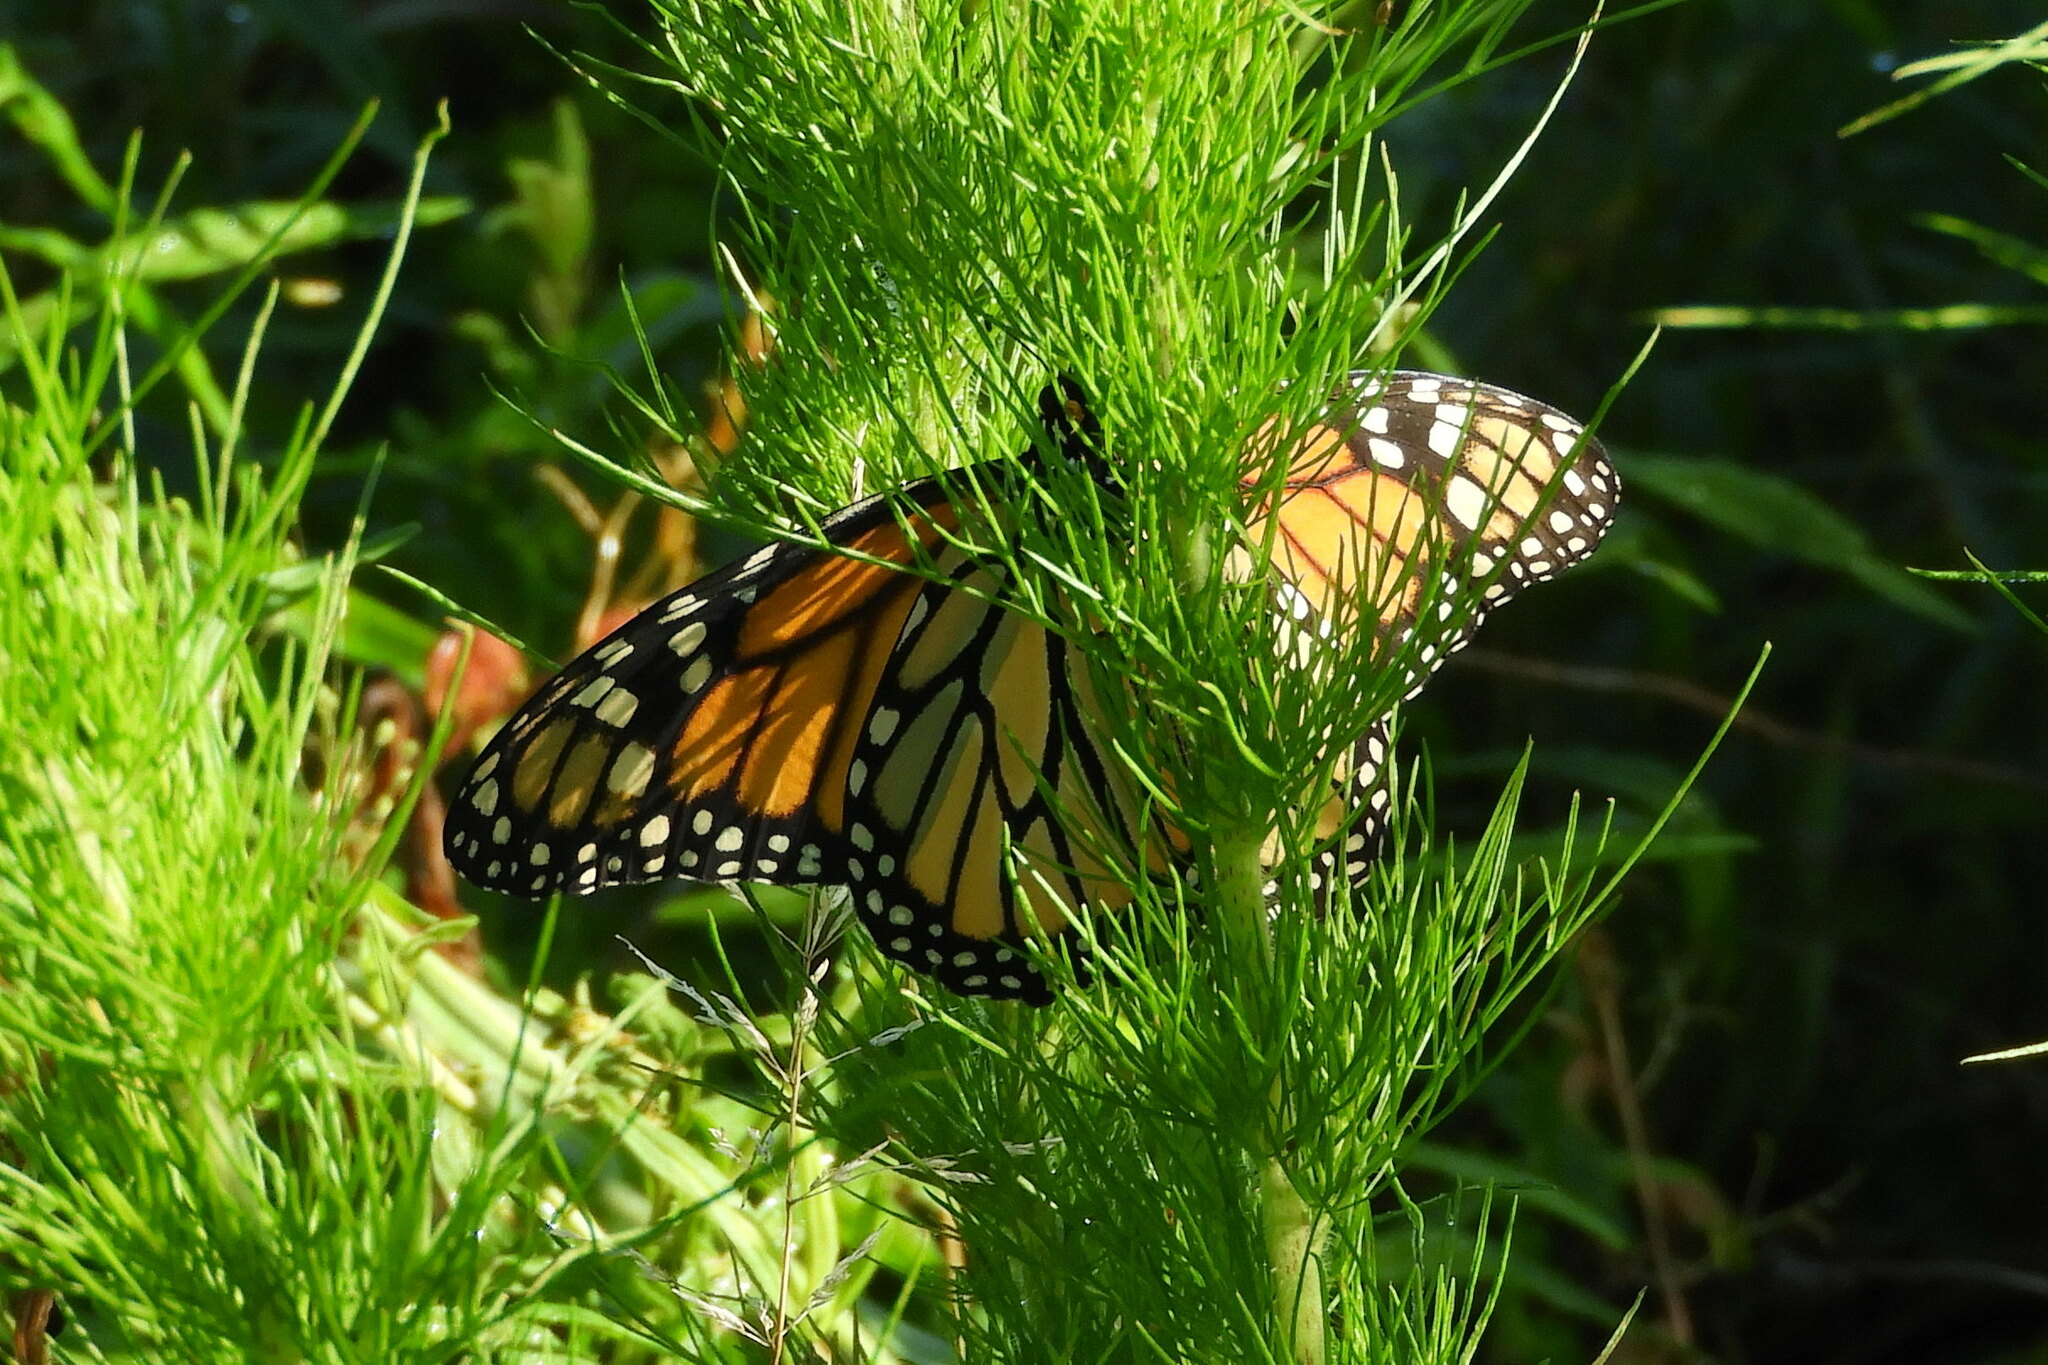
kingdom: Animalia
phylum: Arthropoda
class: Insecta
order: Lepidoptera
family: Nymphalidae
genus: Danaus
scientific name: Danaus plexippus
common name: Monarch
